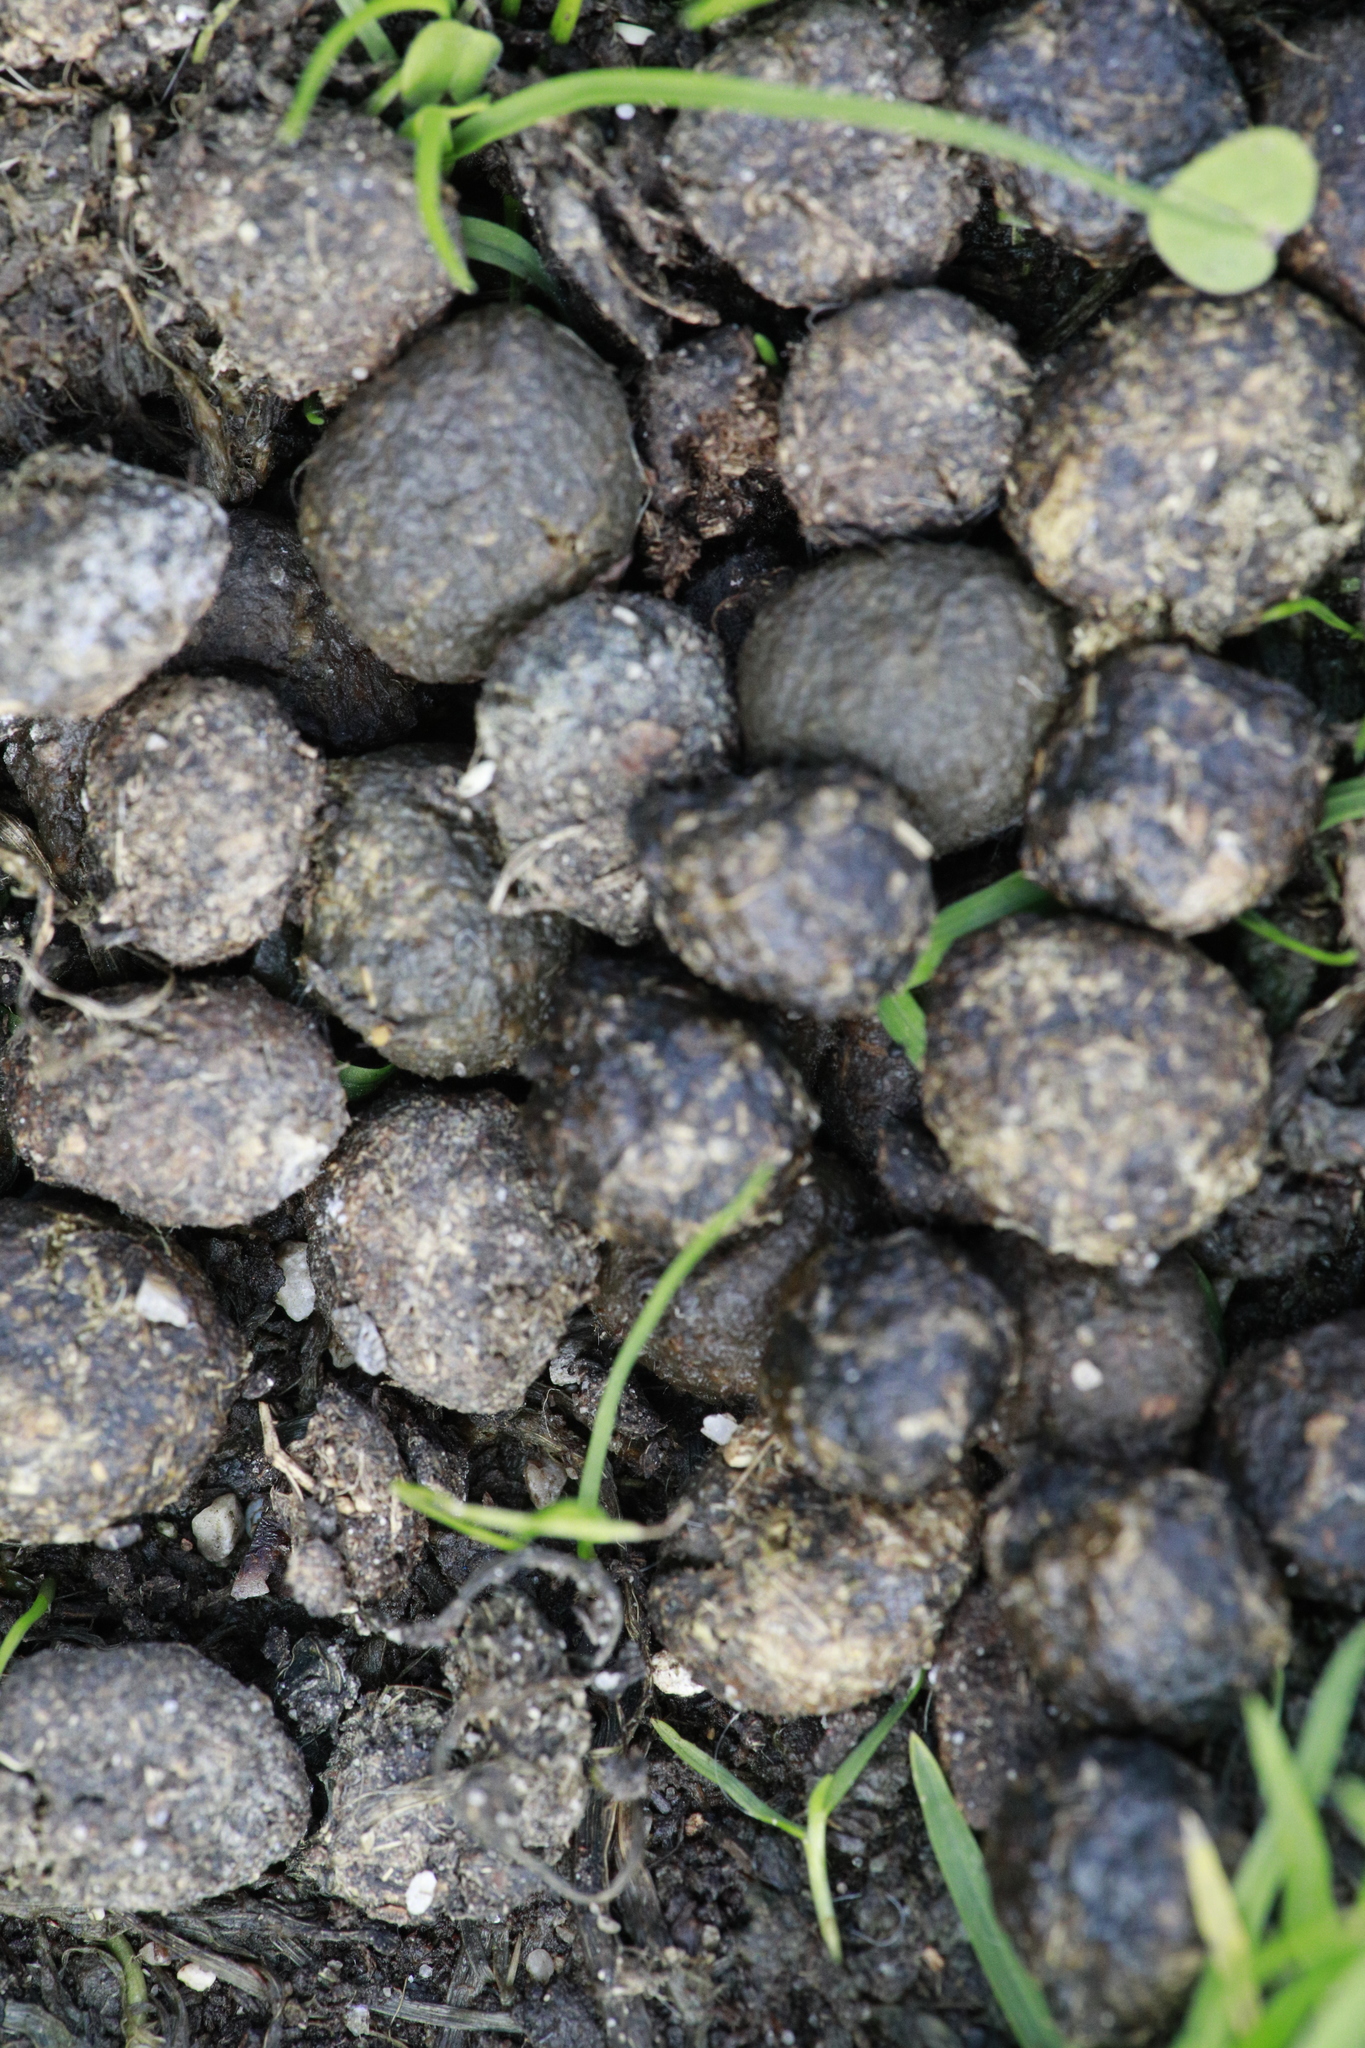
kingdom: Animalia
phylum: Chordata
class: Mammalia
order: Lagomorpha
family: Leporidae
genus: Oryctolagus
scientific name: Oryctolagus cuniculus
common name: European rabbit
